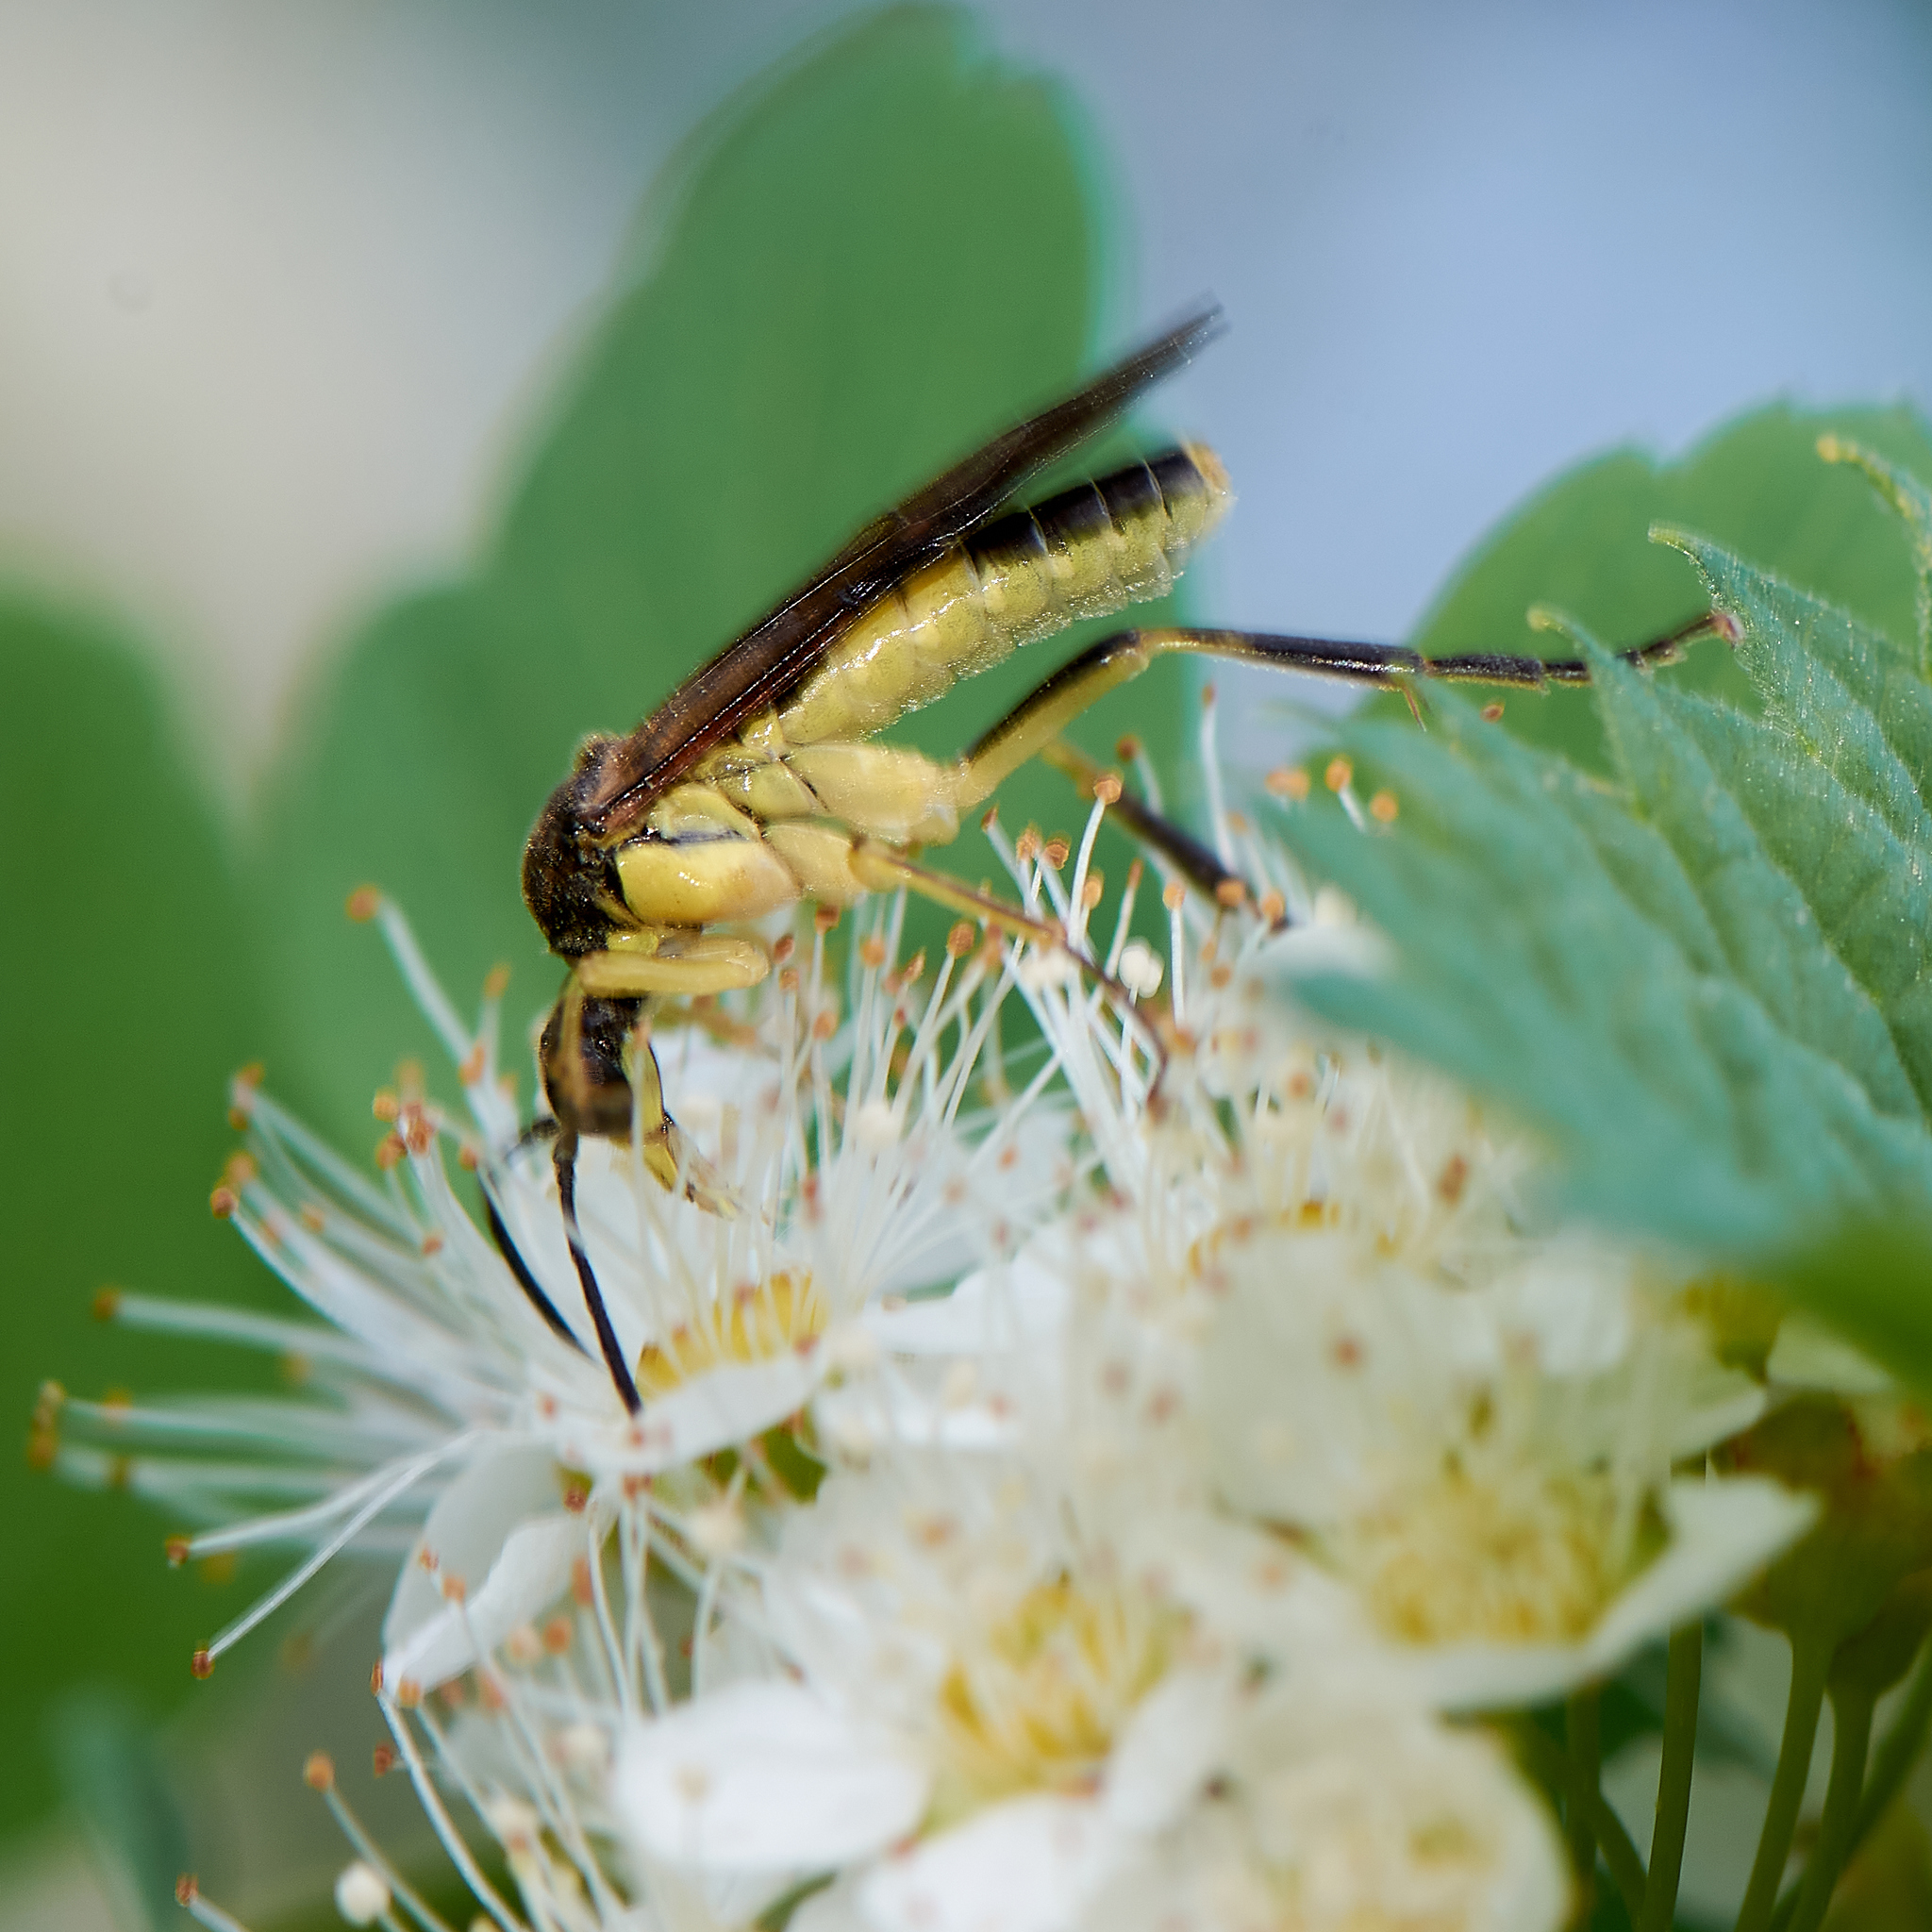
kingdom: Animalia
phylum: Arthropoda
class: Insecta
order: Hymenoptera
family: Tenthredinidae
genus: Tenthredo
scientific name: Tenthredo temula
